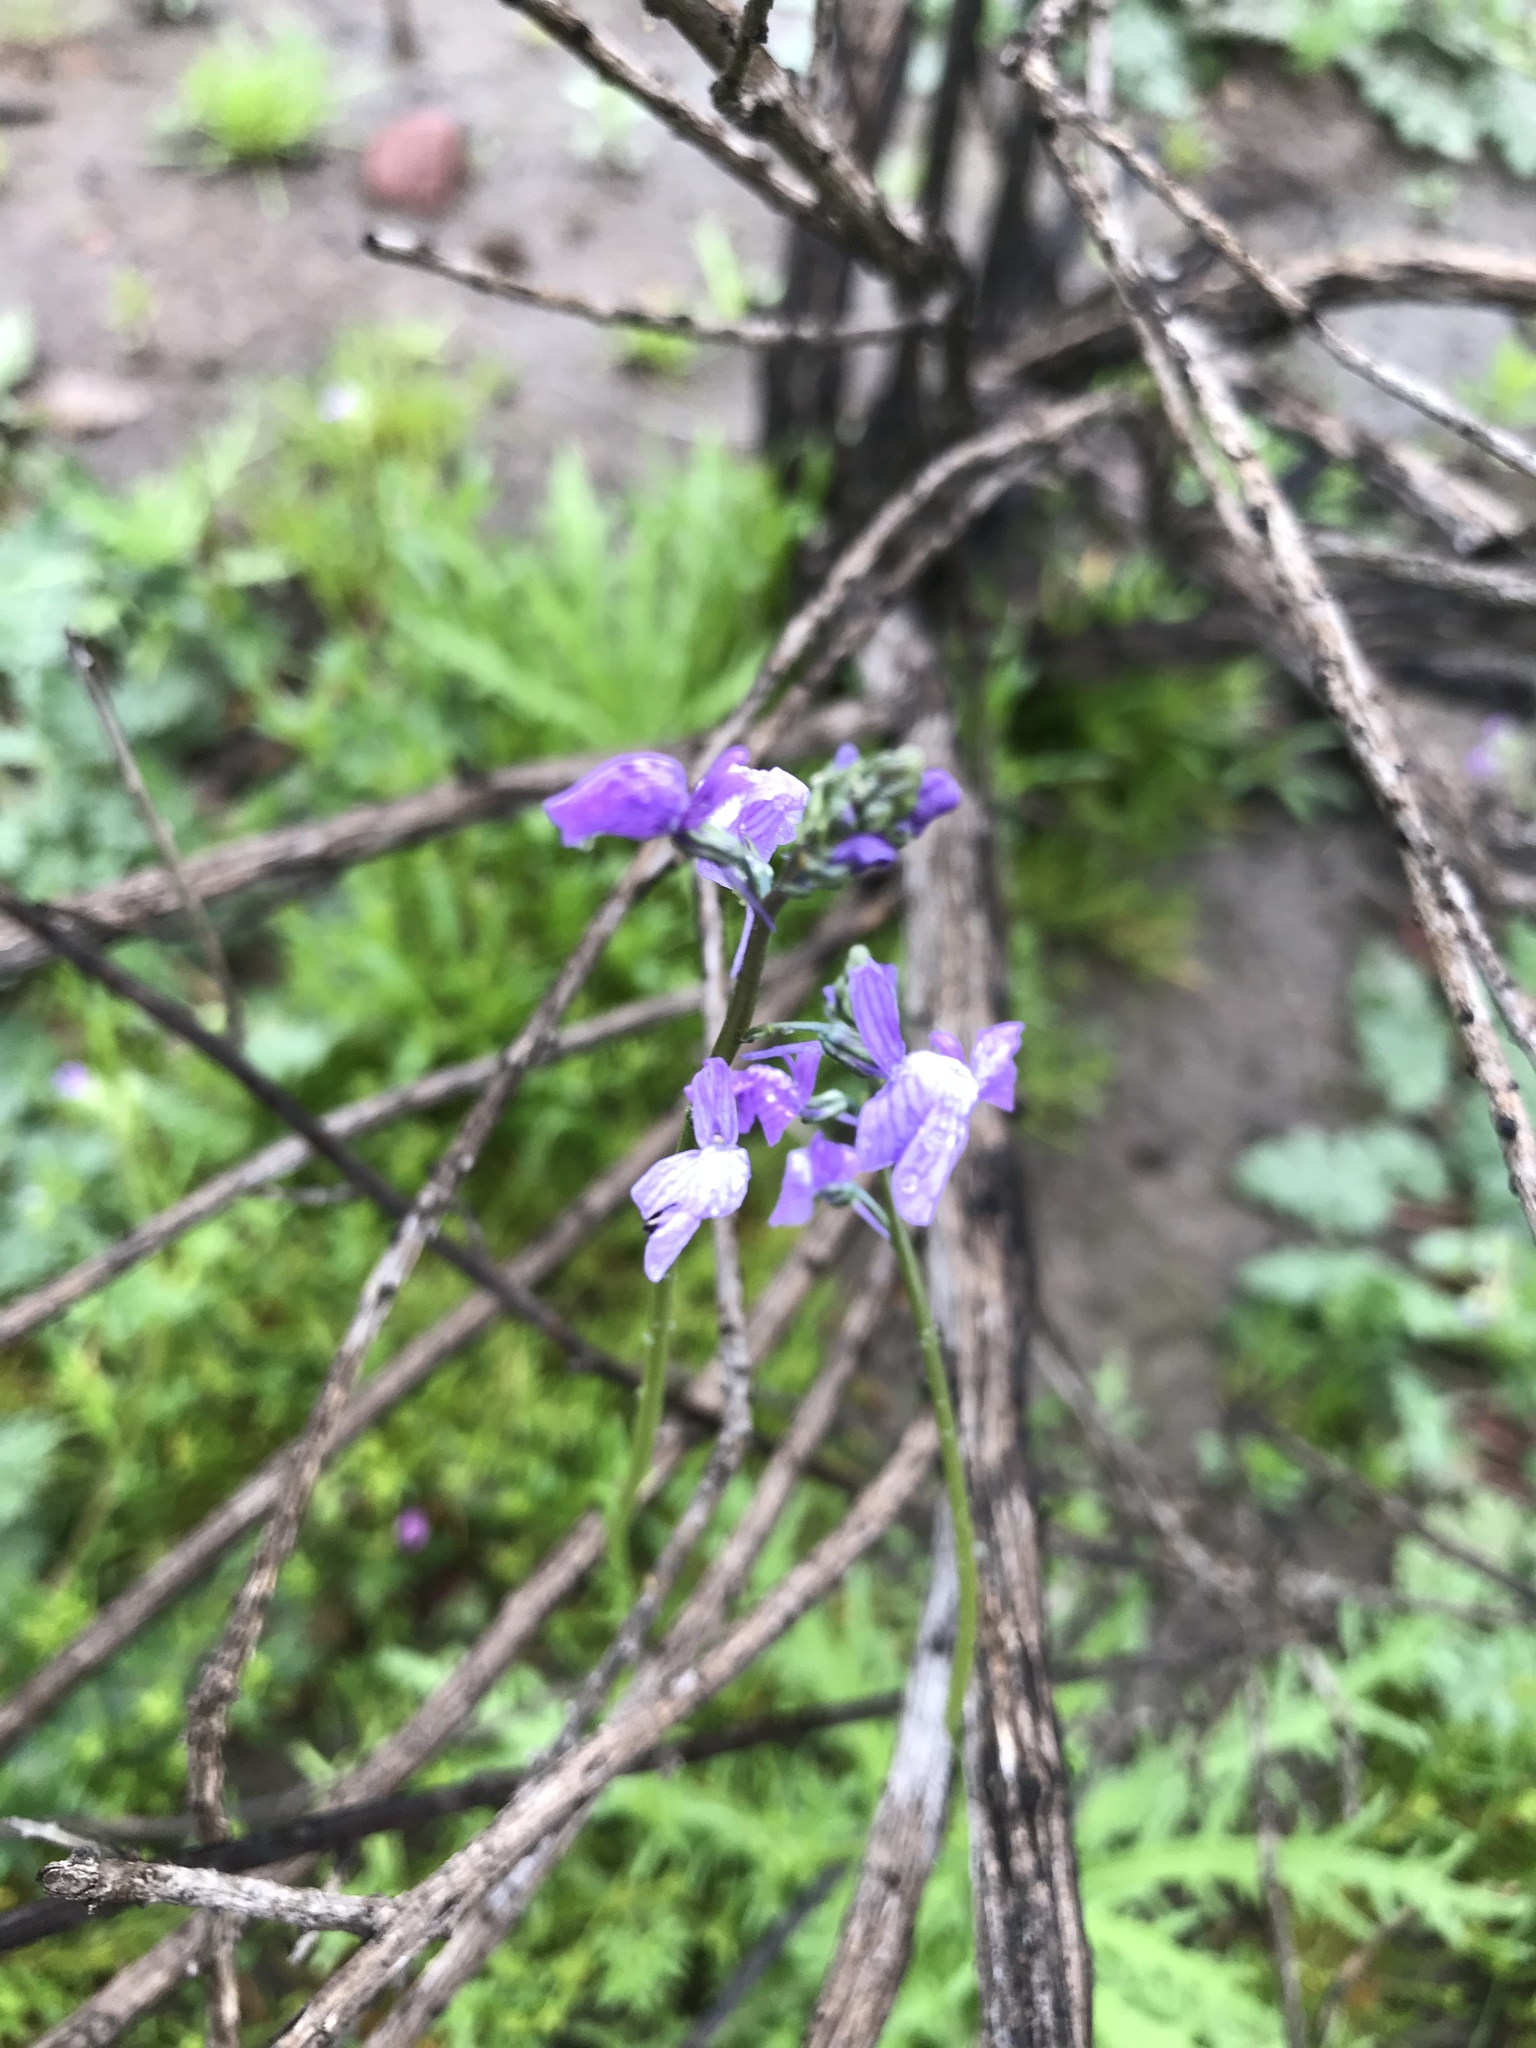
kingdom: Plantae
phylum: Tracheophyta
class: Magnoliopsida
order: Lamiales
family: Plantaginaceae
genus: Nuttallanthus
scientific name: Nuttallanthus texanus
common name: Texas toadflax
